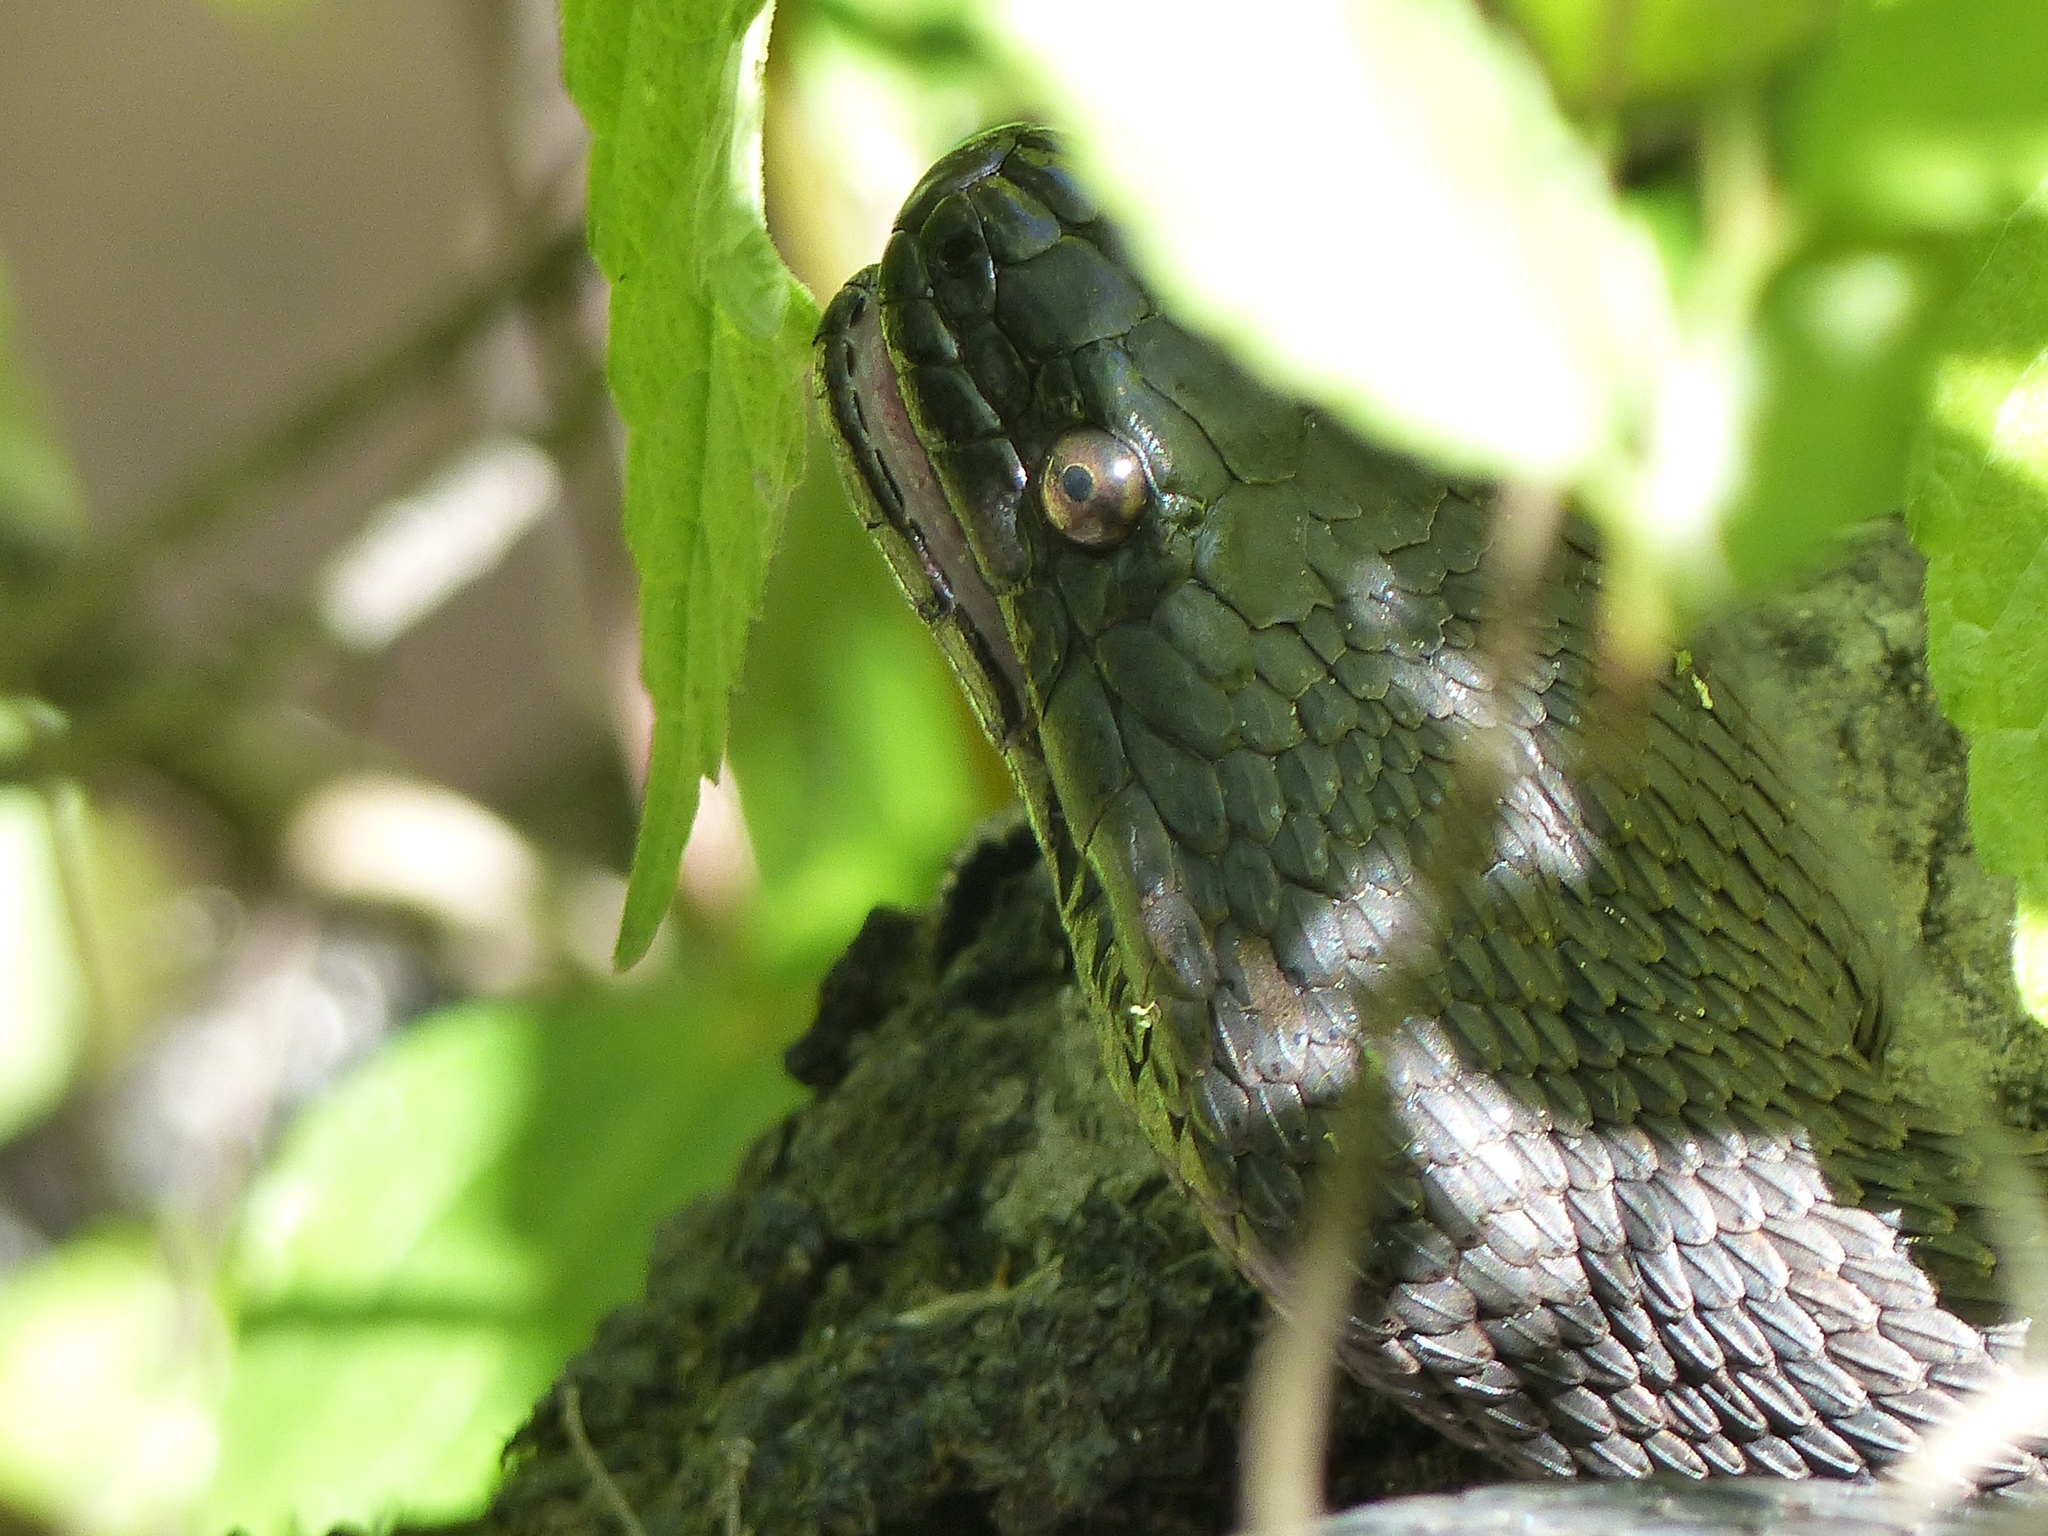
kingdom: Animalia
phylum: Chordata
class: Squamata
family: Colubridae
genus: Nerodia
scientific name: Nerodia taxispilota
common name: Brown water snake
